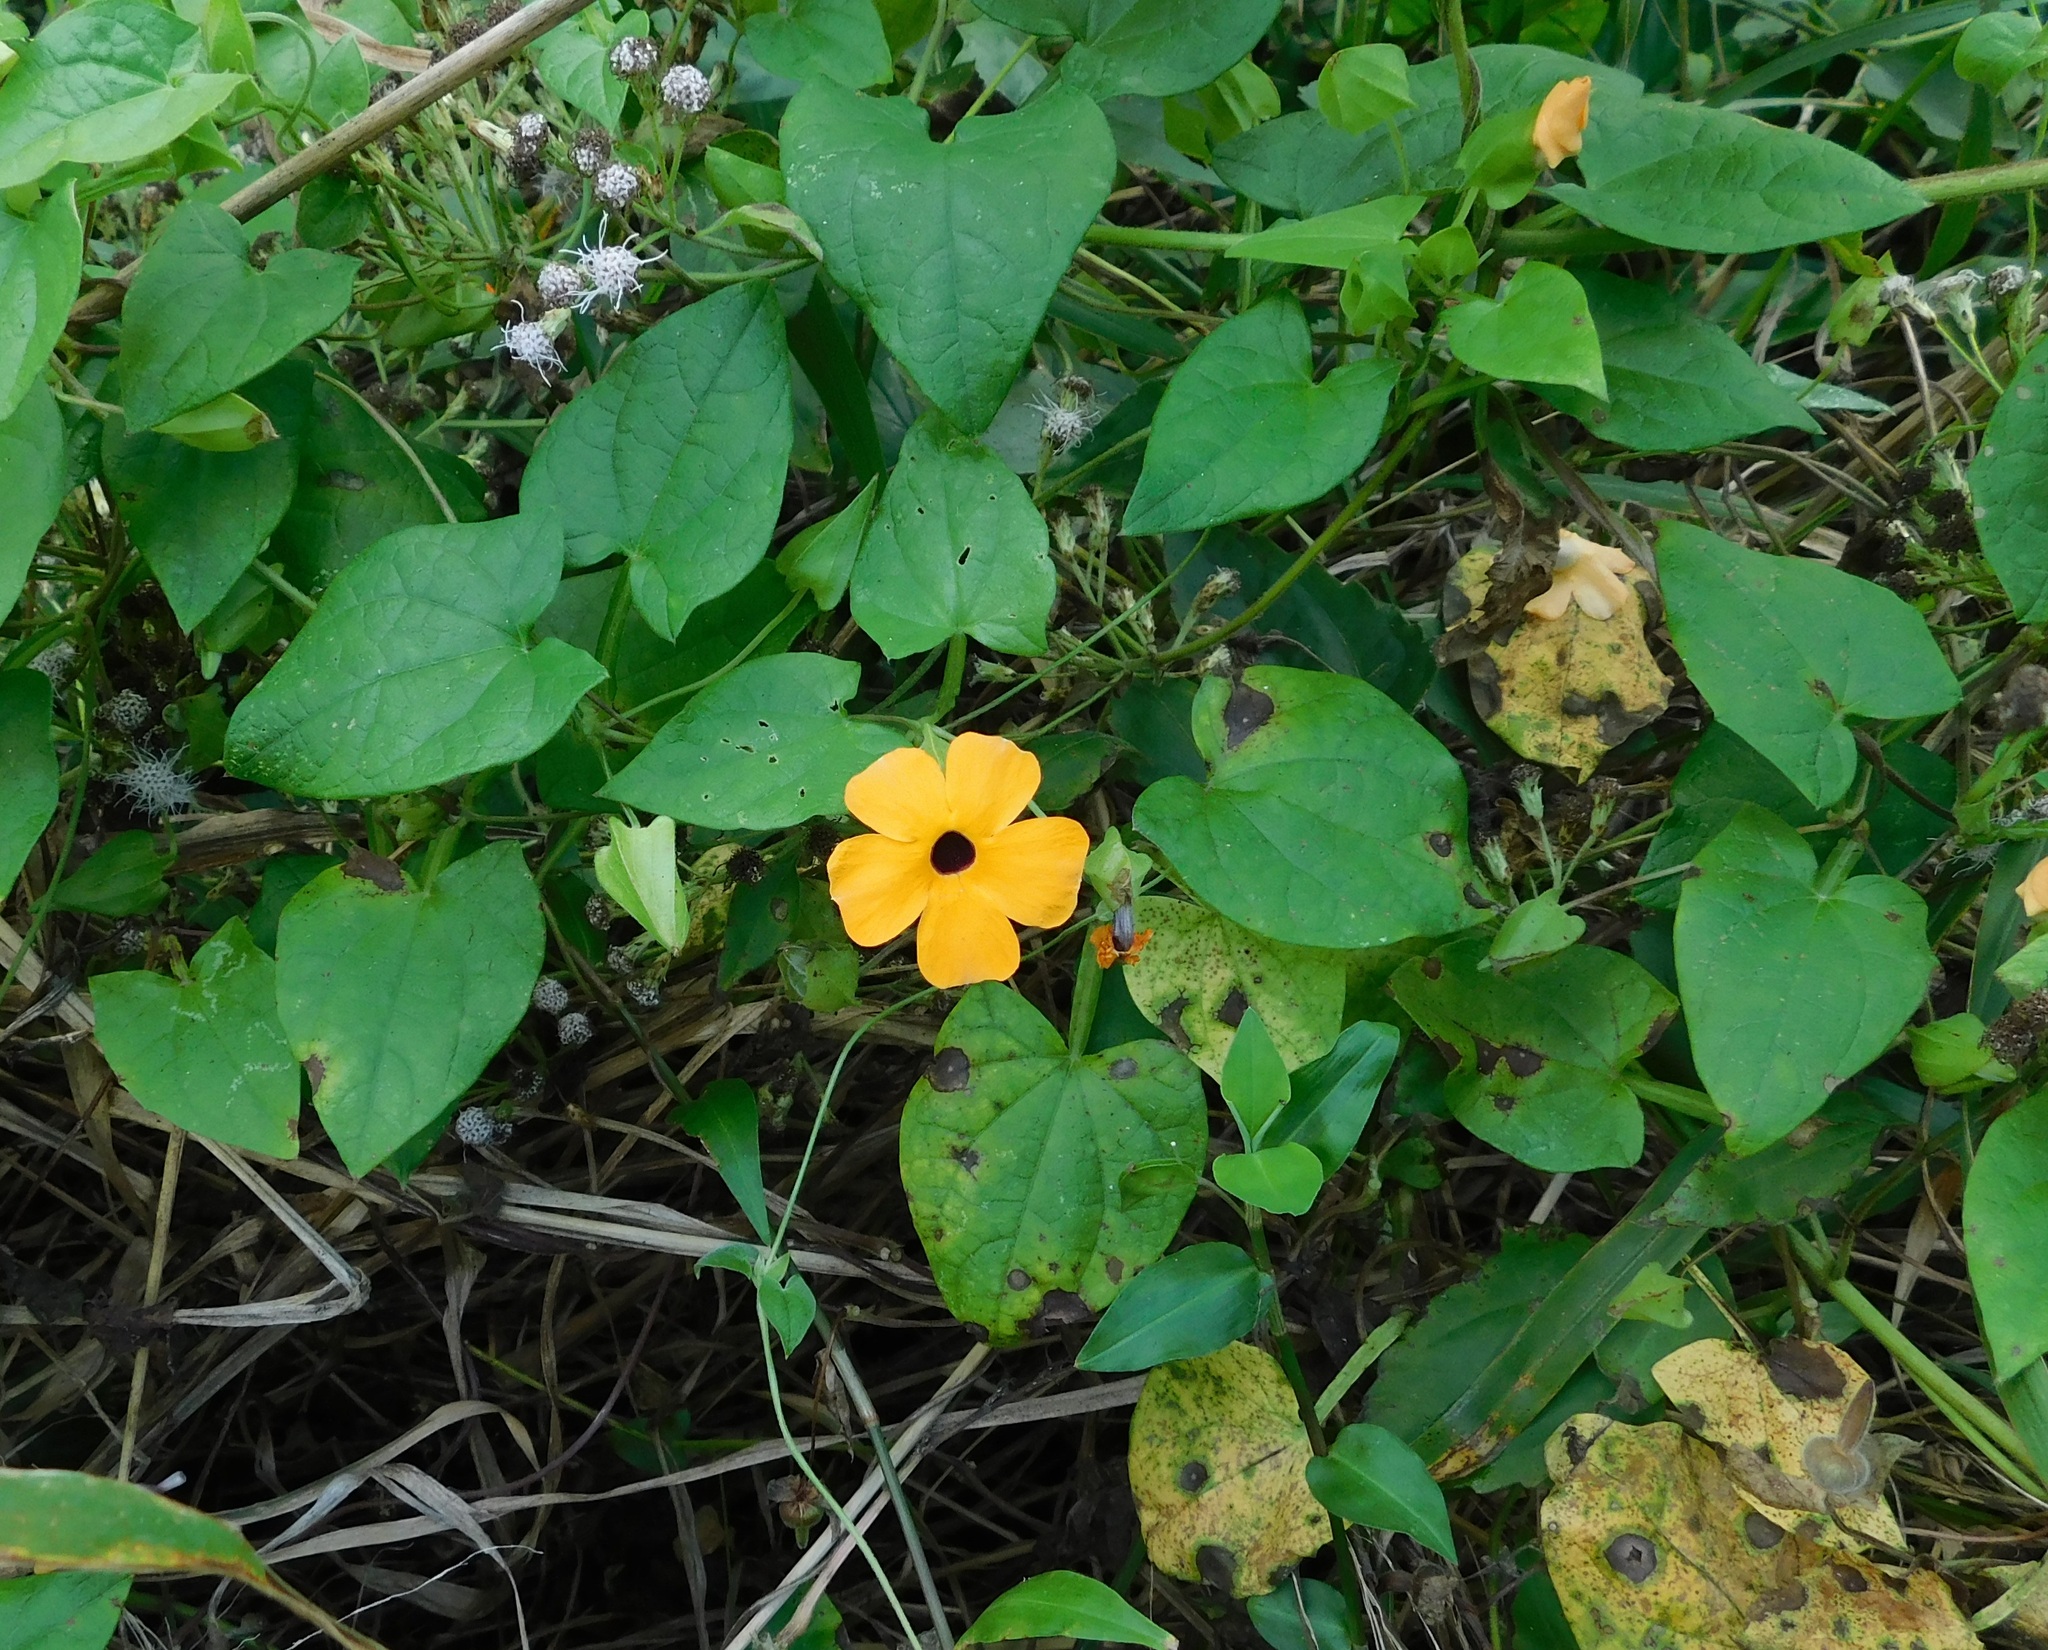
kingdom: Plantae
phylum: Tracheophyta
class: Magnoliopsida
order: Lamiales
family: Acanthaceae
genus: Thunbergia
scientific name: Thunbergia alata
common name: Blackeyed susan vine
